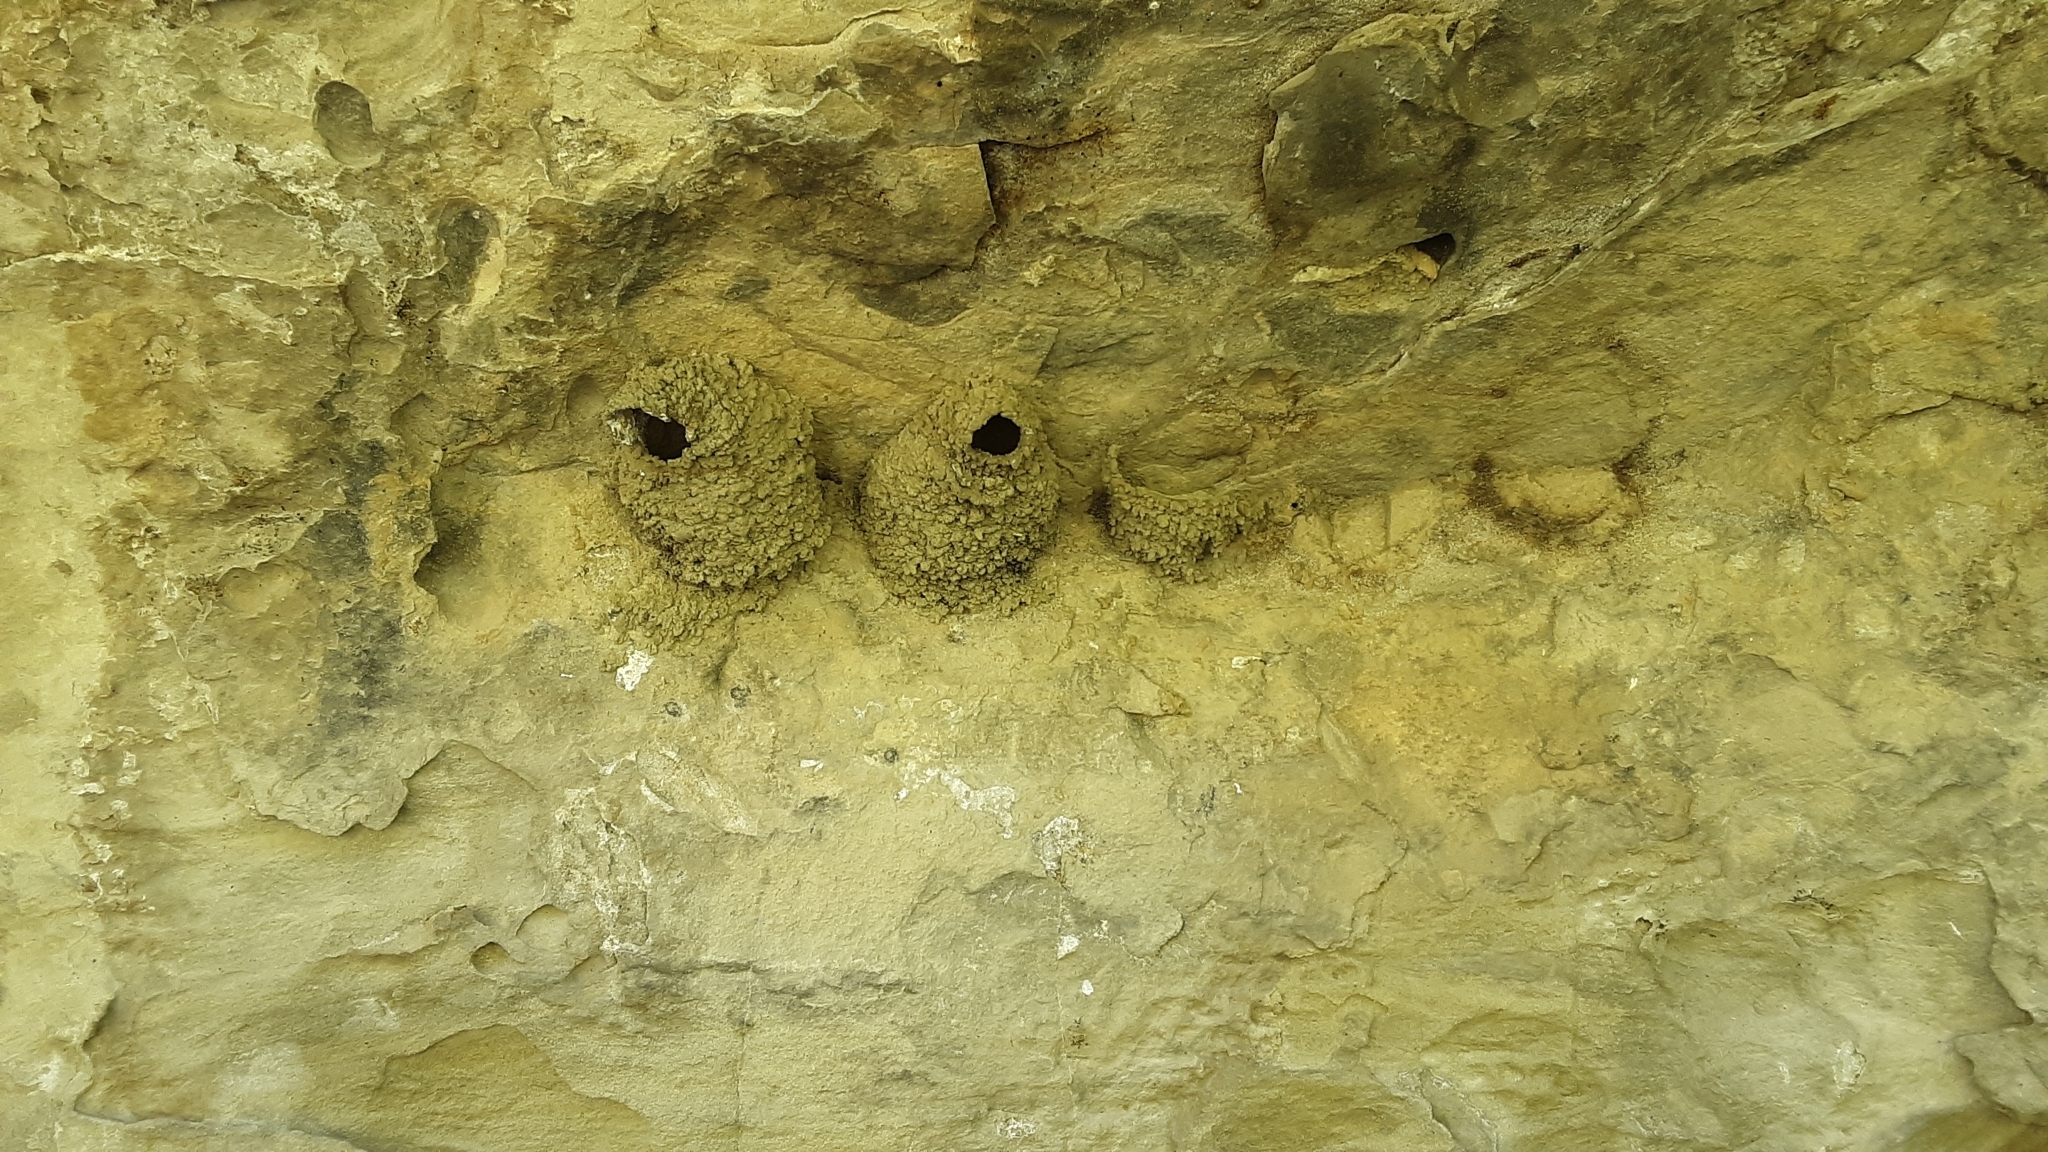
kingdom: Animalia
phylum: Chordata
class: Aves
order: Passeriformes
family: Hirundinidae
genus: Petrochelidon
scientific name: Petrochelidon pyrrhonota
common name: American cliff swallow
